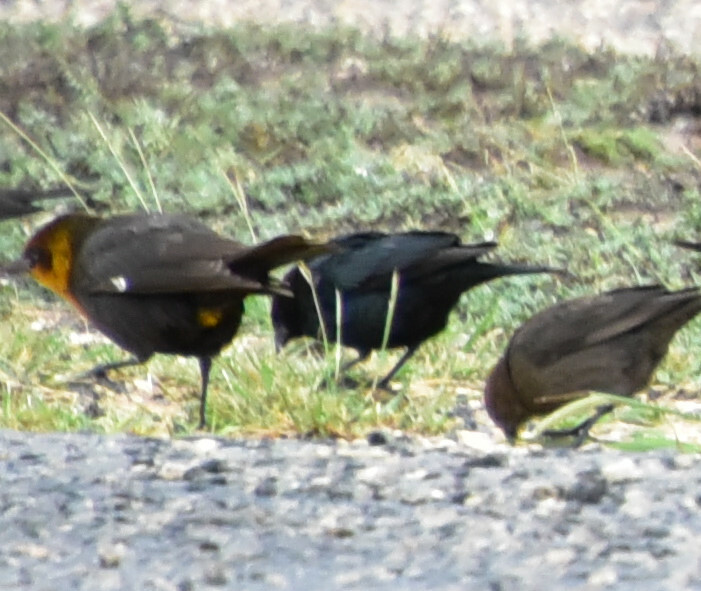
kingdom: Animalia
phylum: Chordata
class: Aves
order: Passeriformes
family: Icteridae
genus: Xanthocephalus
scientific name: Xanthocephalus xanthocephalus
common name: Yellow-headed blackbird
